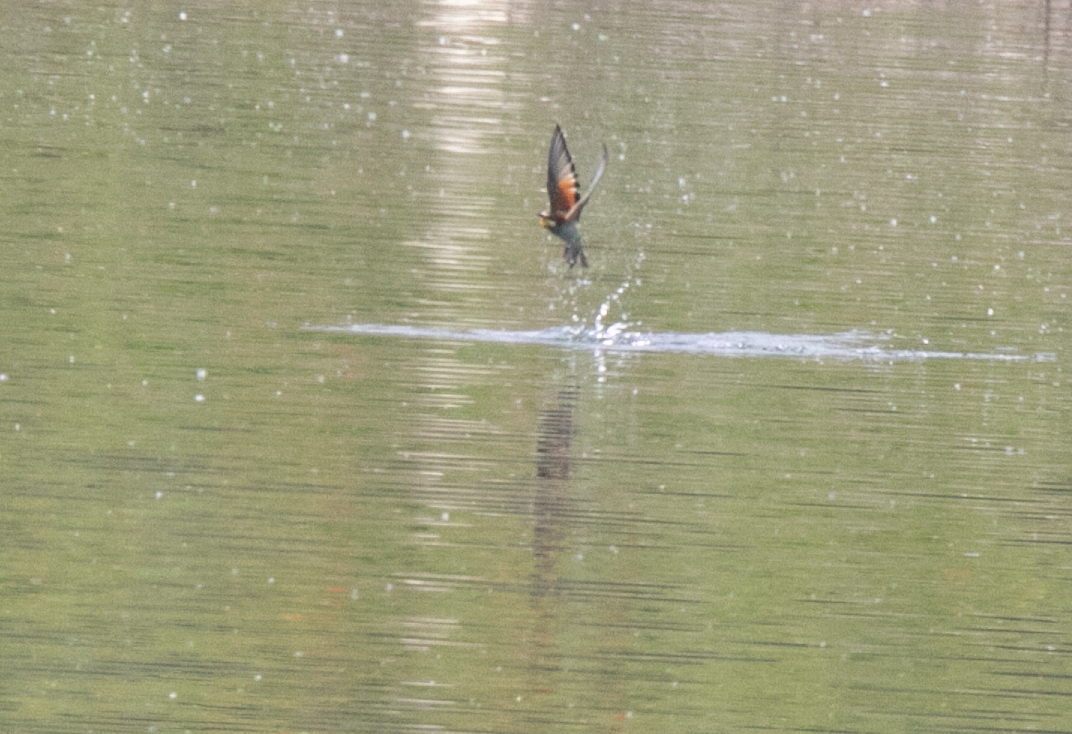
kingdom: Animalia
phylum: Chordata
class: Aves
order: Coraciiformes
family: Meropidae
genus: Merops
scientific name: Merops apiaster
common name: European bee-eater
